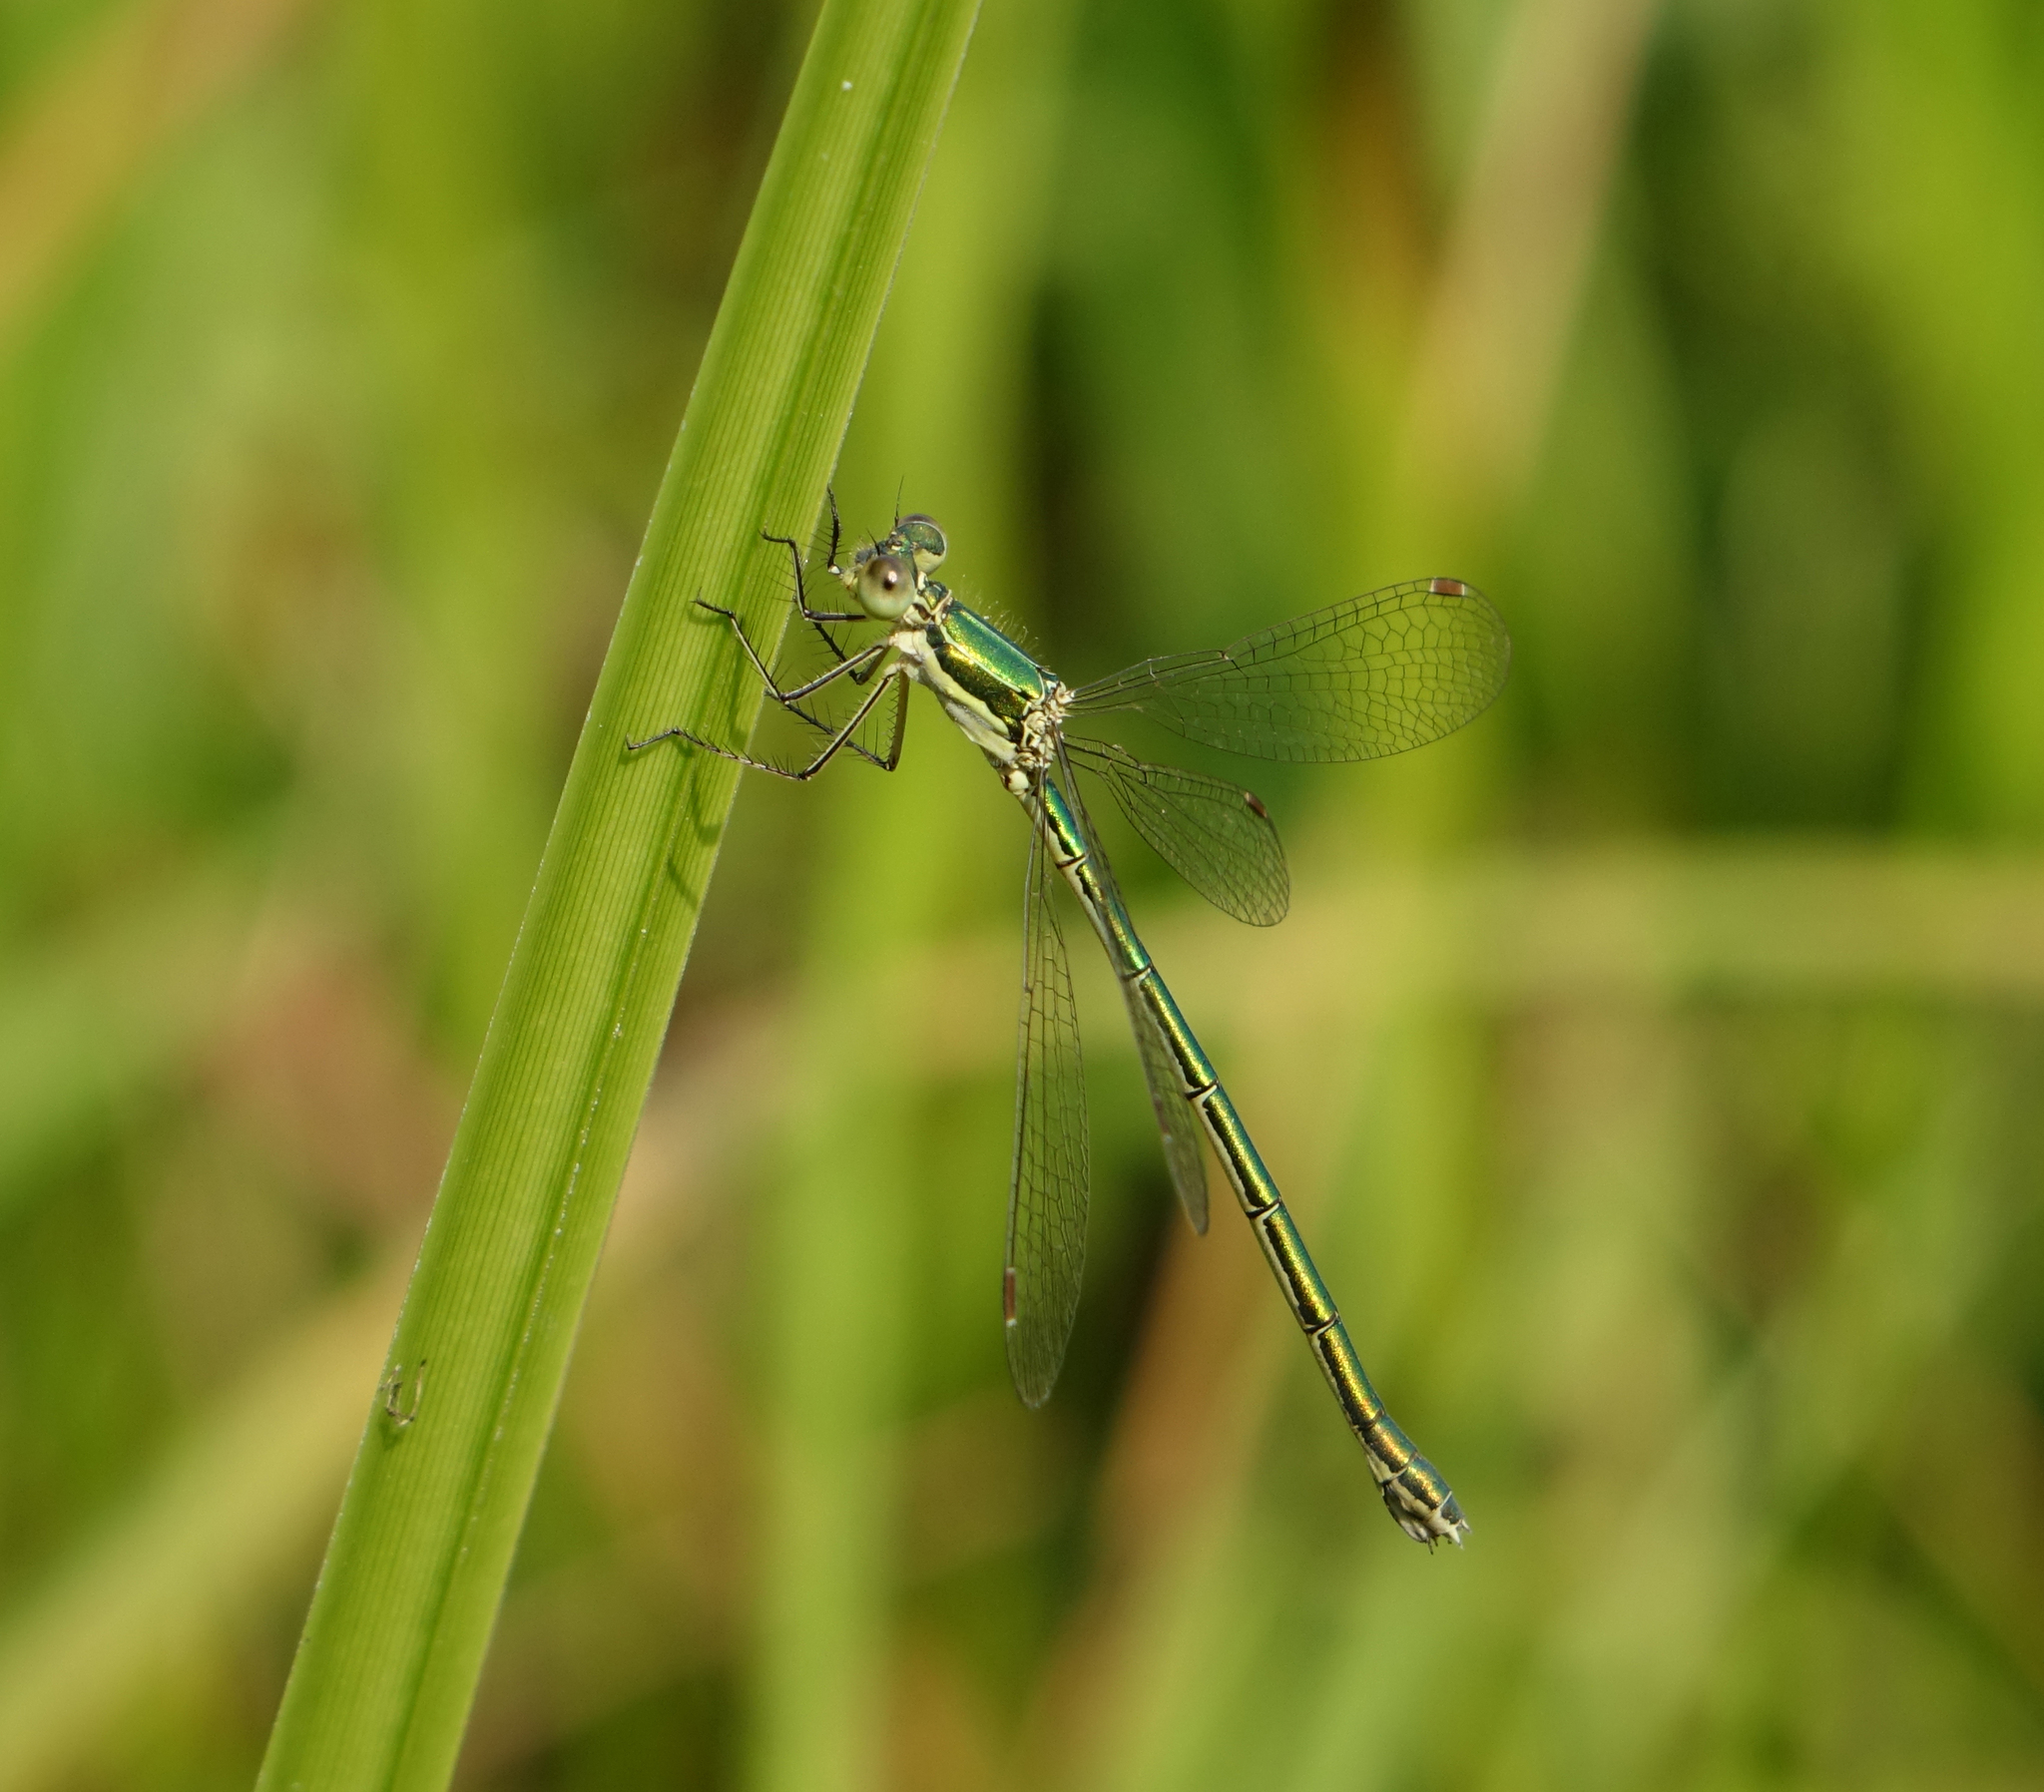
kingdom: Animalia
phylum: Arthropoda
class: Insecta
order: Odonata
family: Lestidae
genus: Lestes
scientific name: Lestes virens
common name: Small emerald spreadwing
